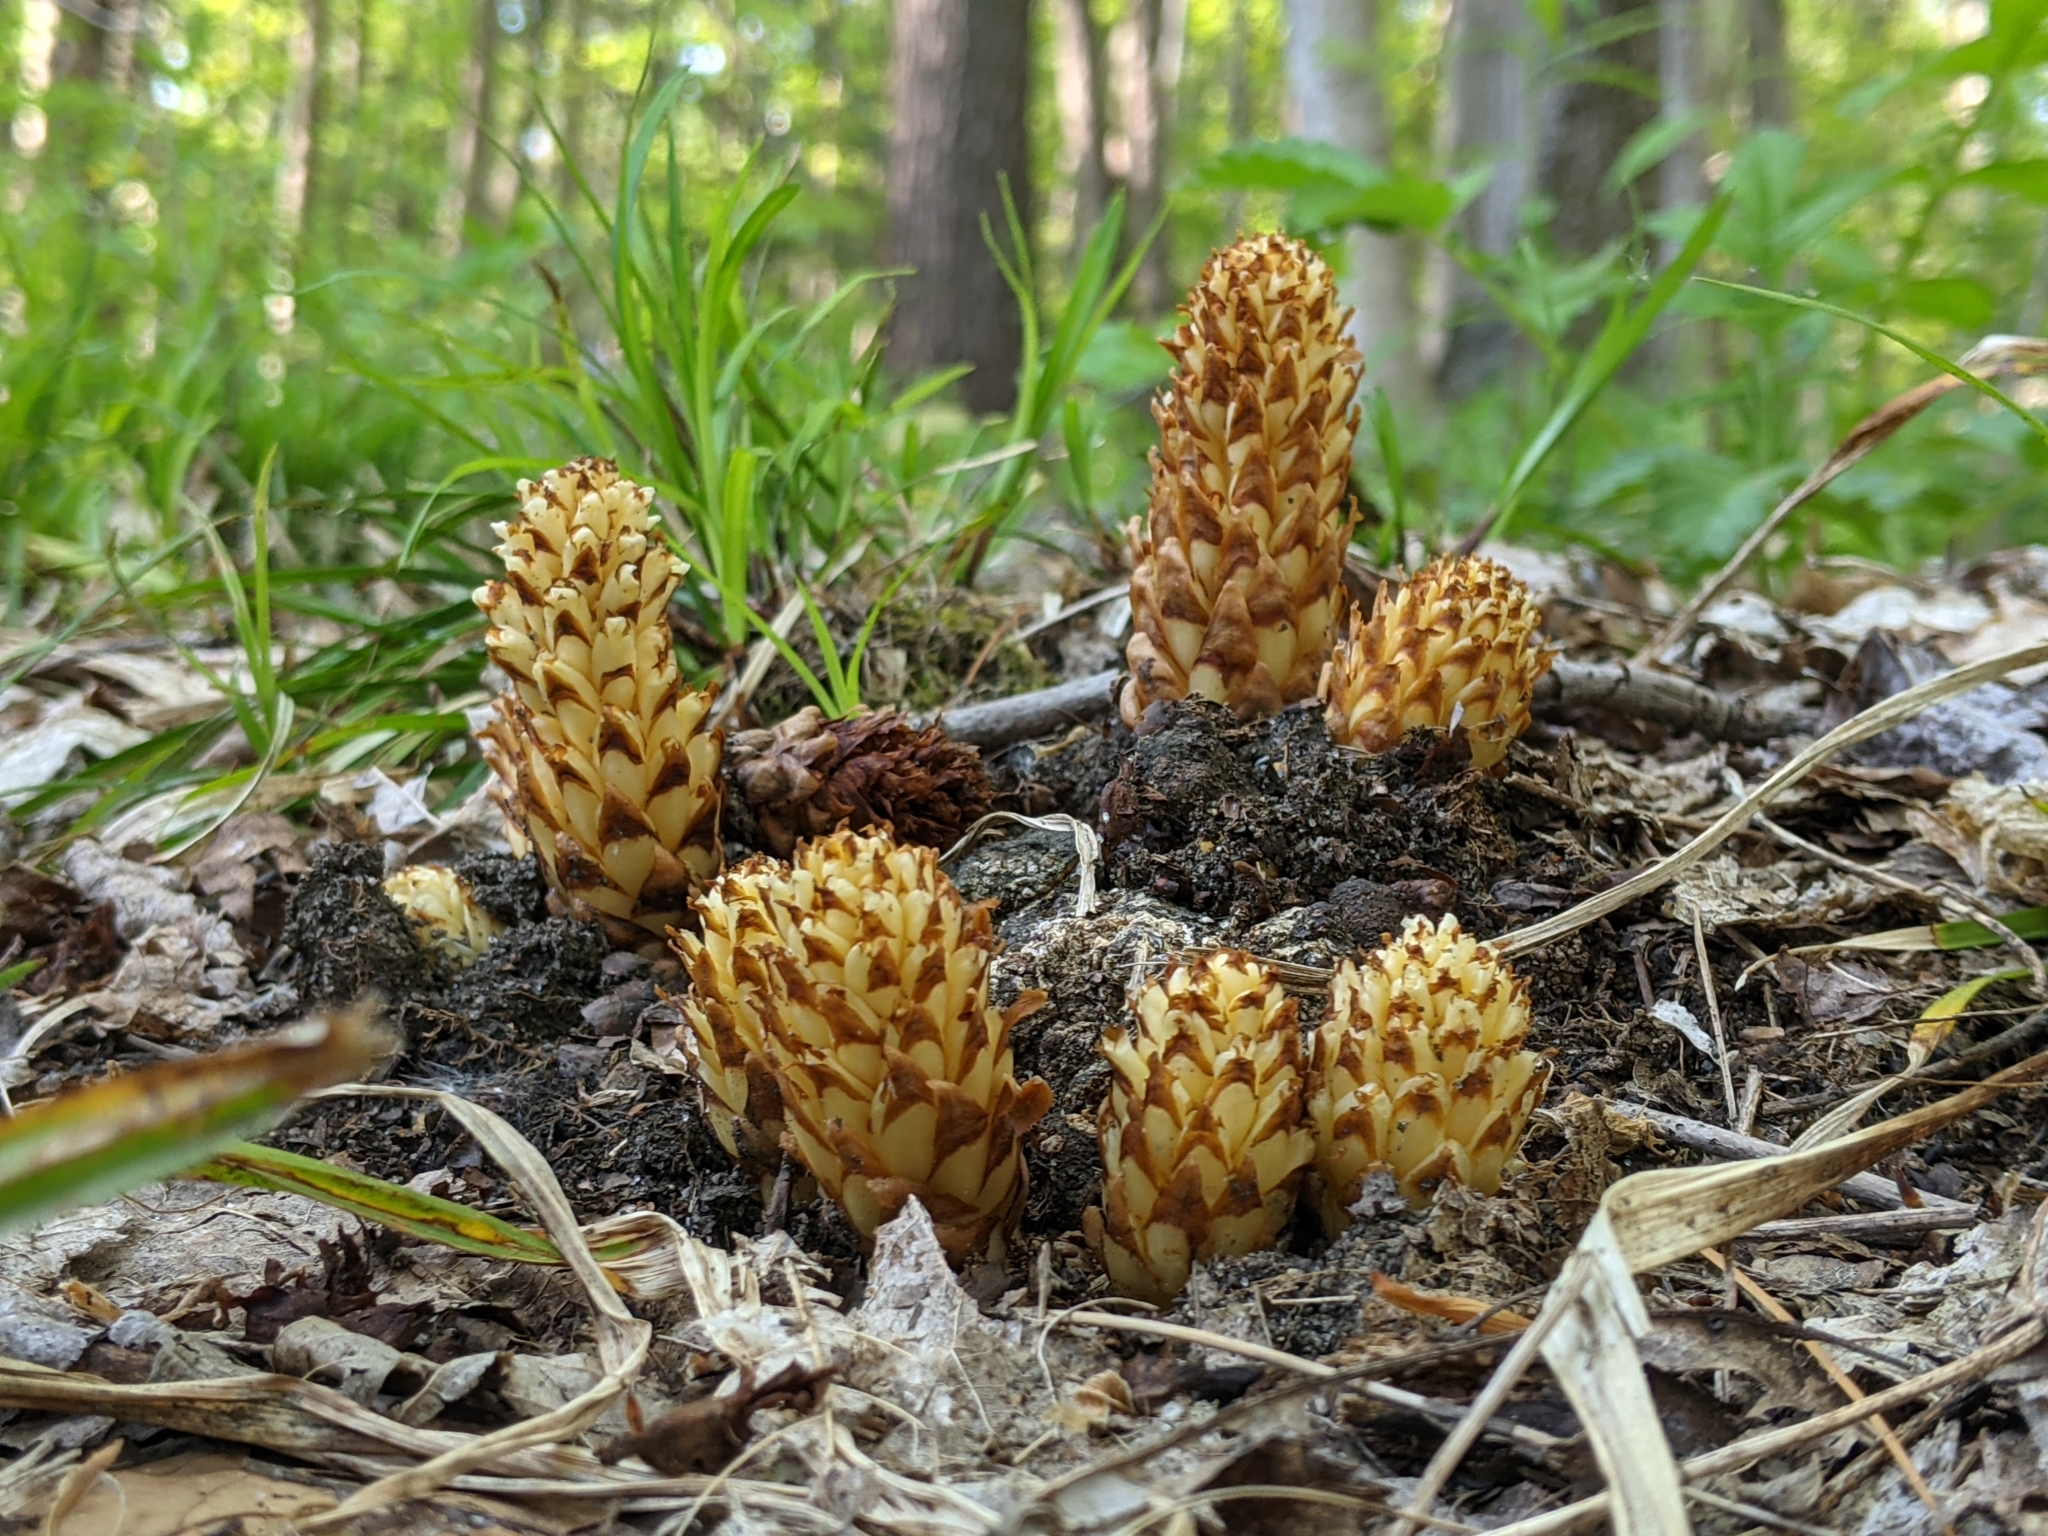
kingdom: Plantae
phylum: Tracheophyta
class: Magnoliopsida
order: Lamiales
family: Orobanchaceae
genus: Conopholis
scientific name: Conopholis americana
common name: American cancer-root
